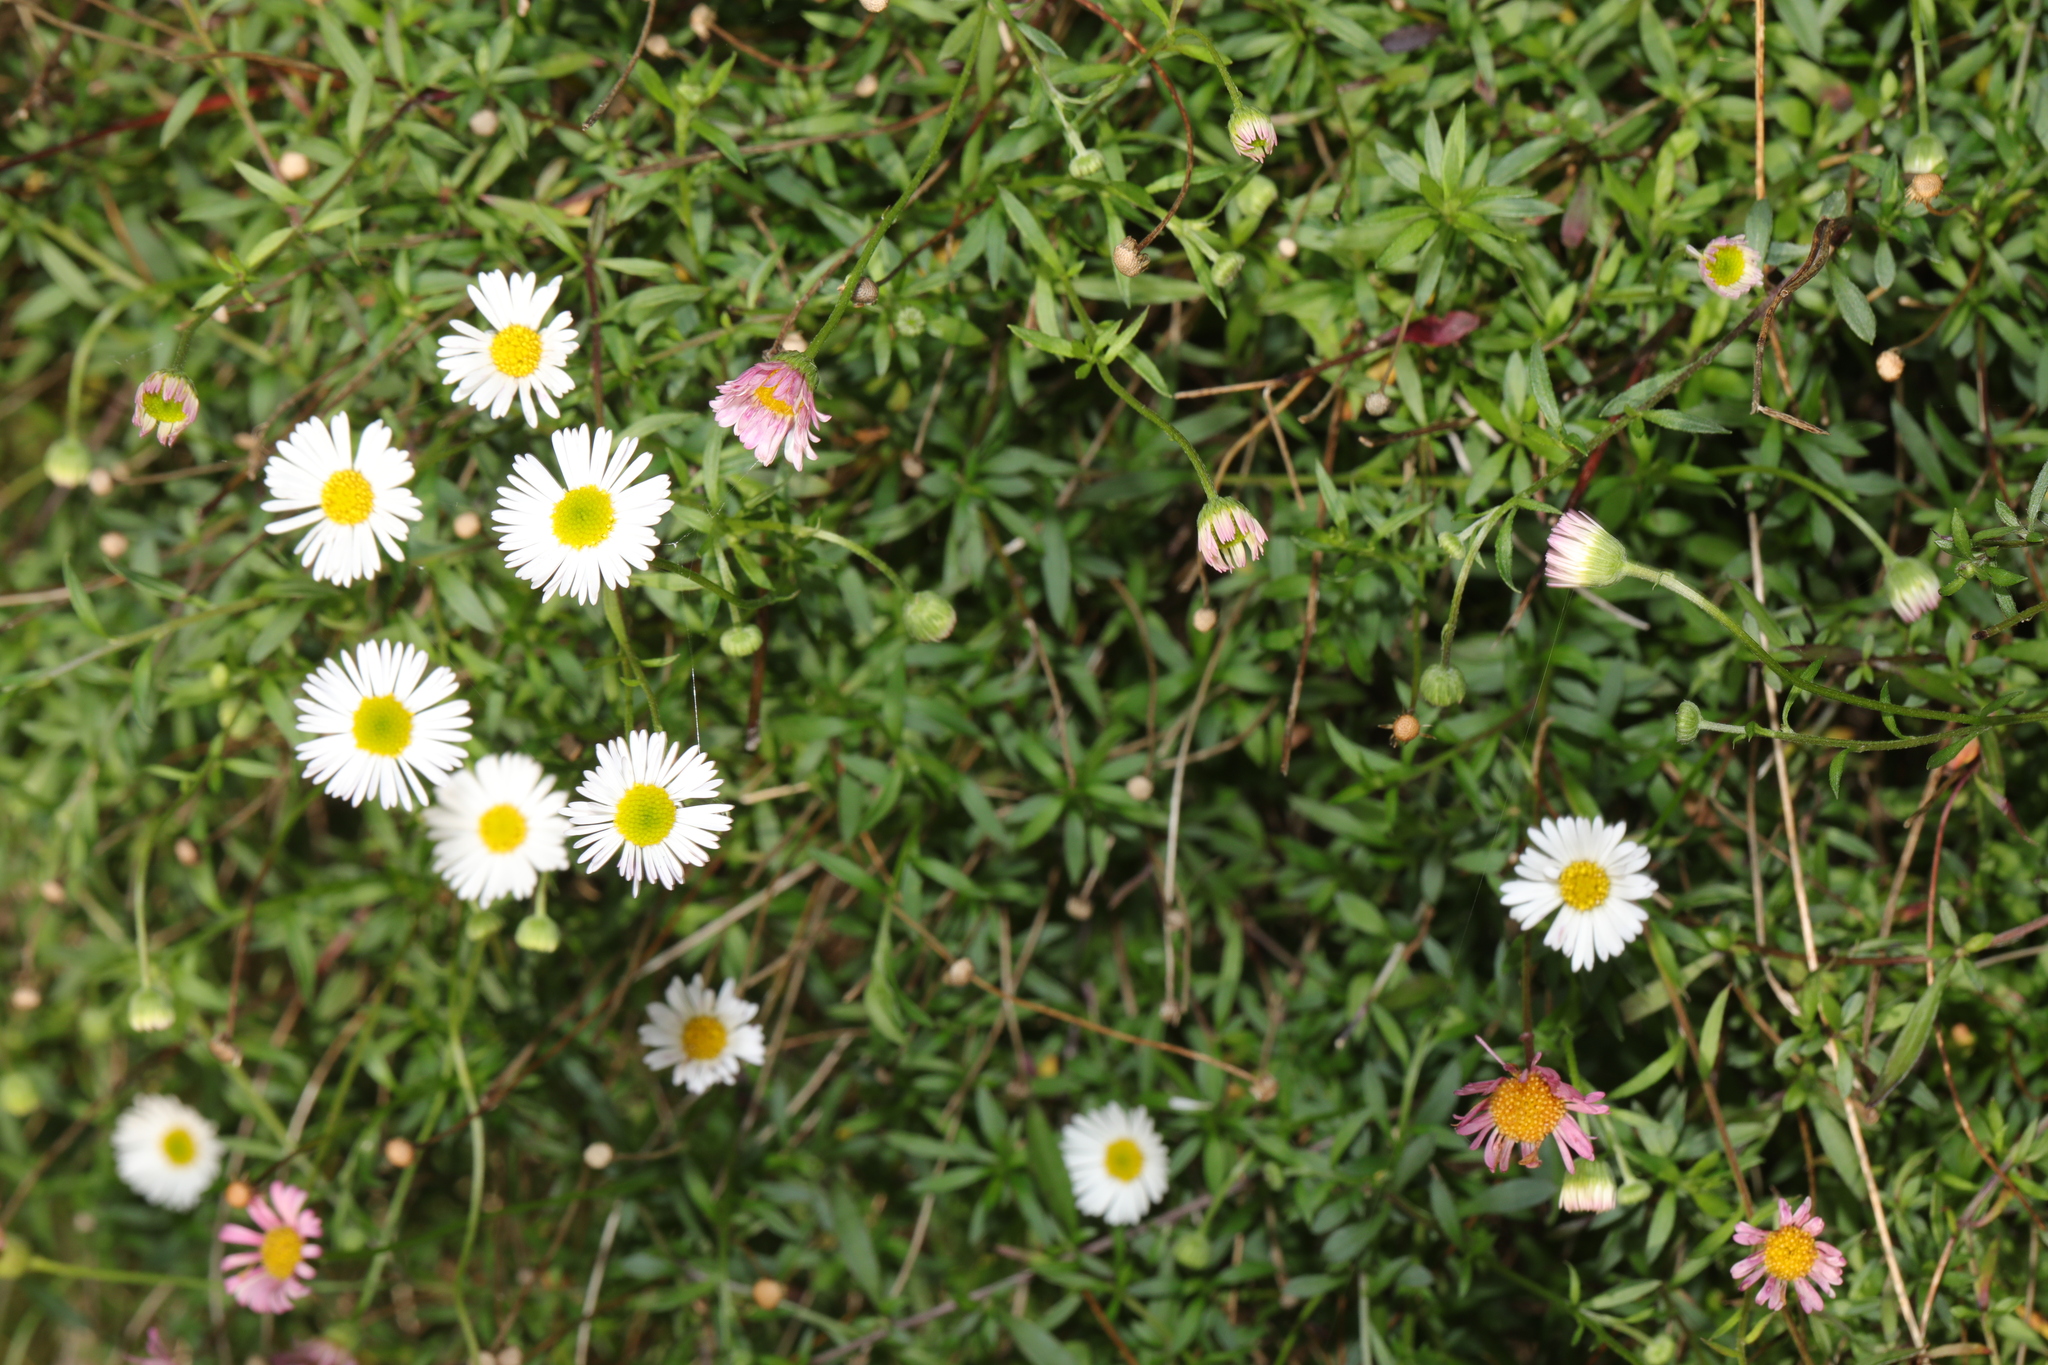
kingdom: Plantae
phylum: Tracheophyta
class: Magnoliopsida
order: Asterales
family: Asteraceae
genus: Erigeron
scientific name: Erigeron karvinskianus
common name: Mexican fleabane
